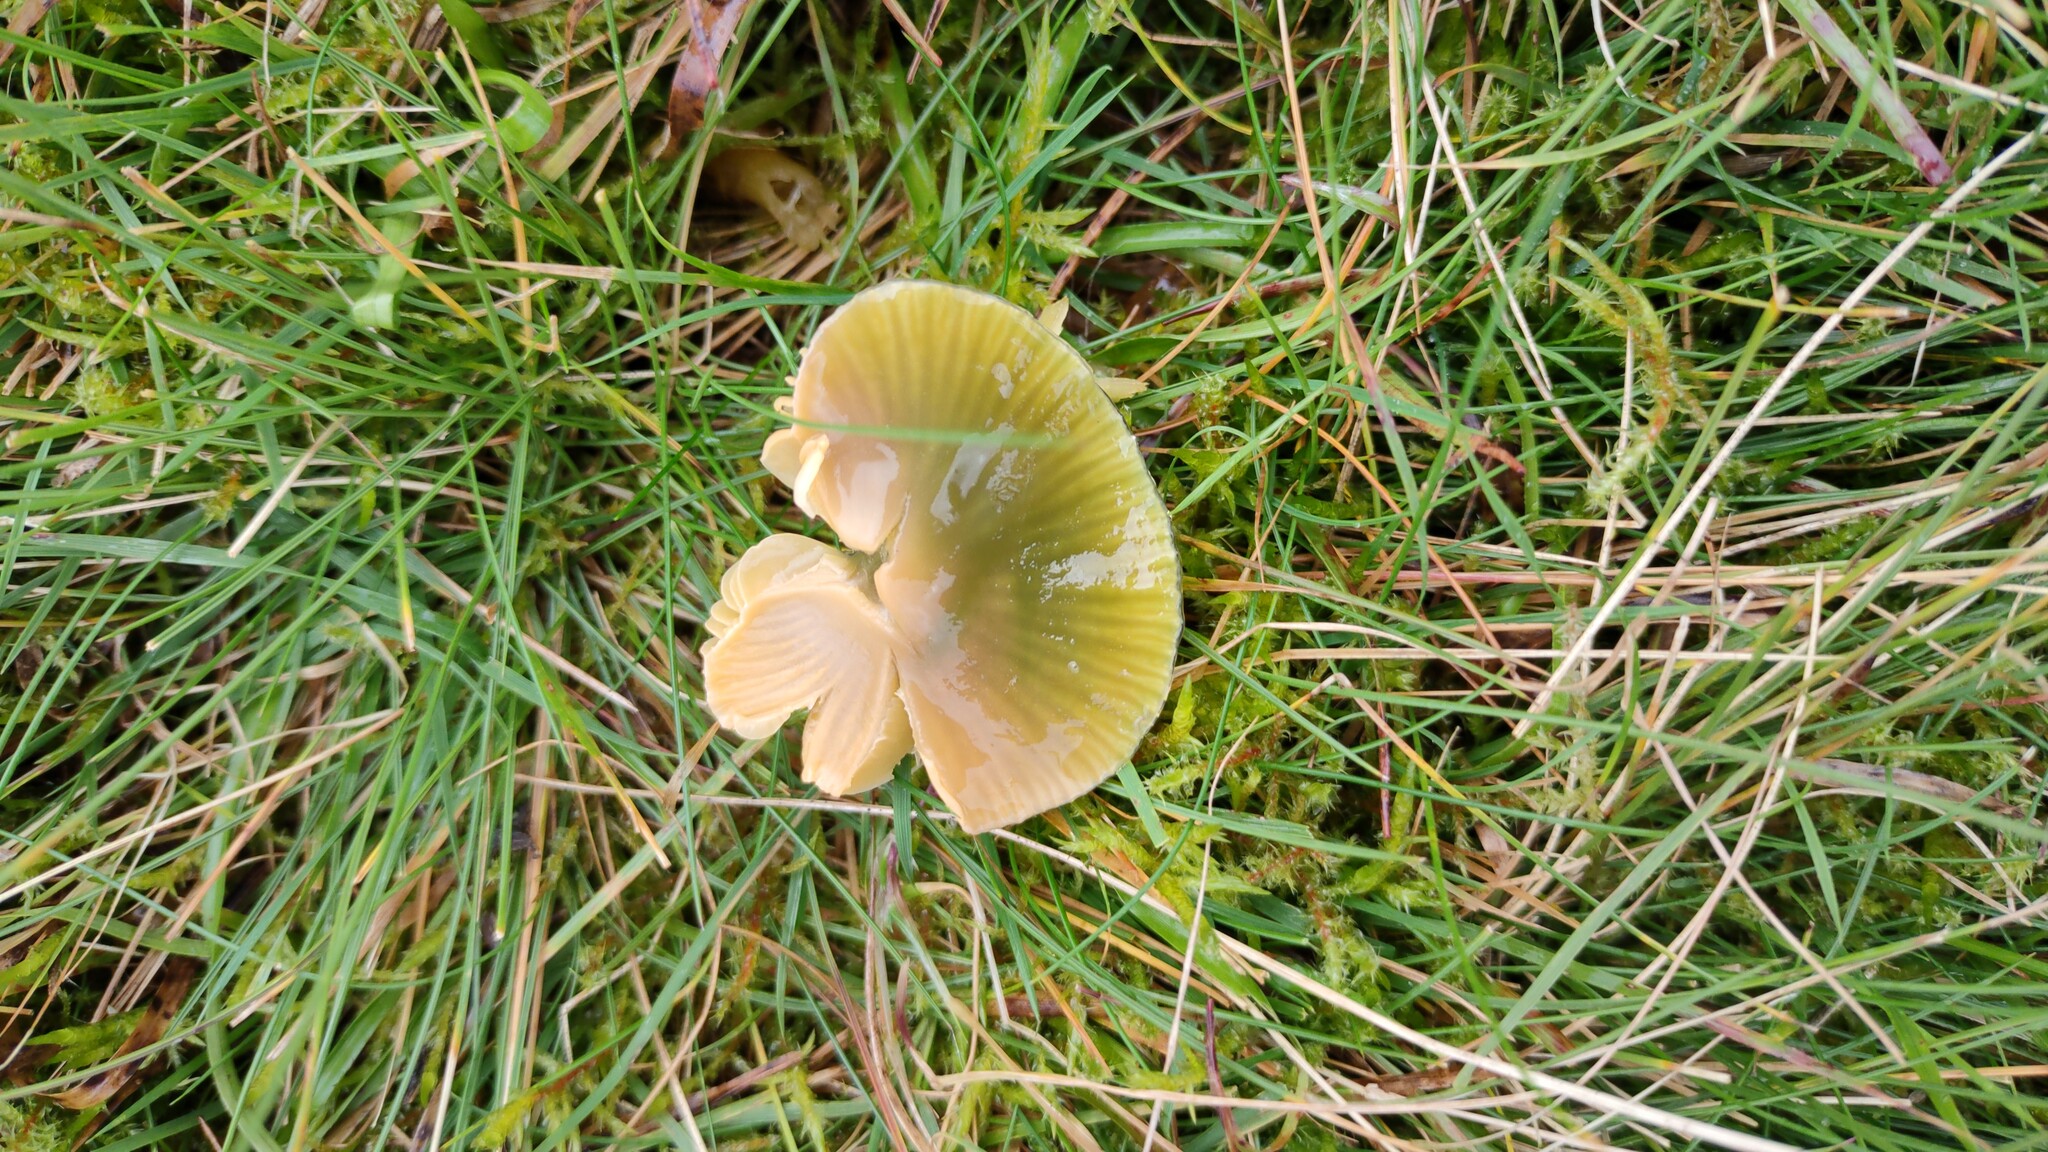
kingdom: Fungi
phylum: Basidiomycota
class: Agaricomycetes
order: Agaricales
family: Hygrophoraceae
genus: Gliophorus
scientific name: Gliophorus psittacinus
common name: Parrot wax-cap
